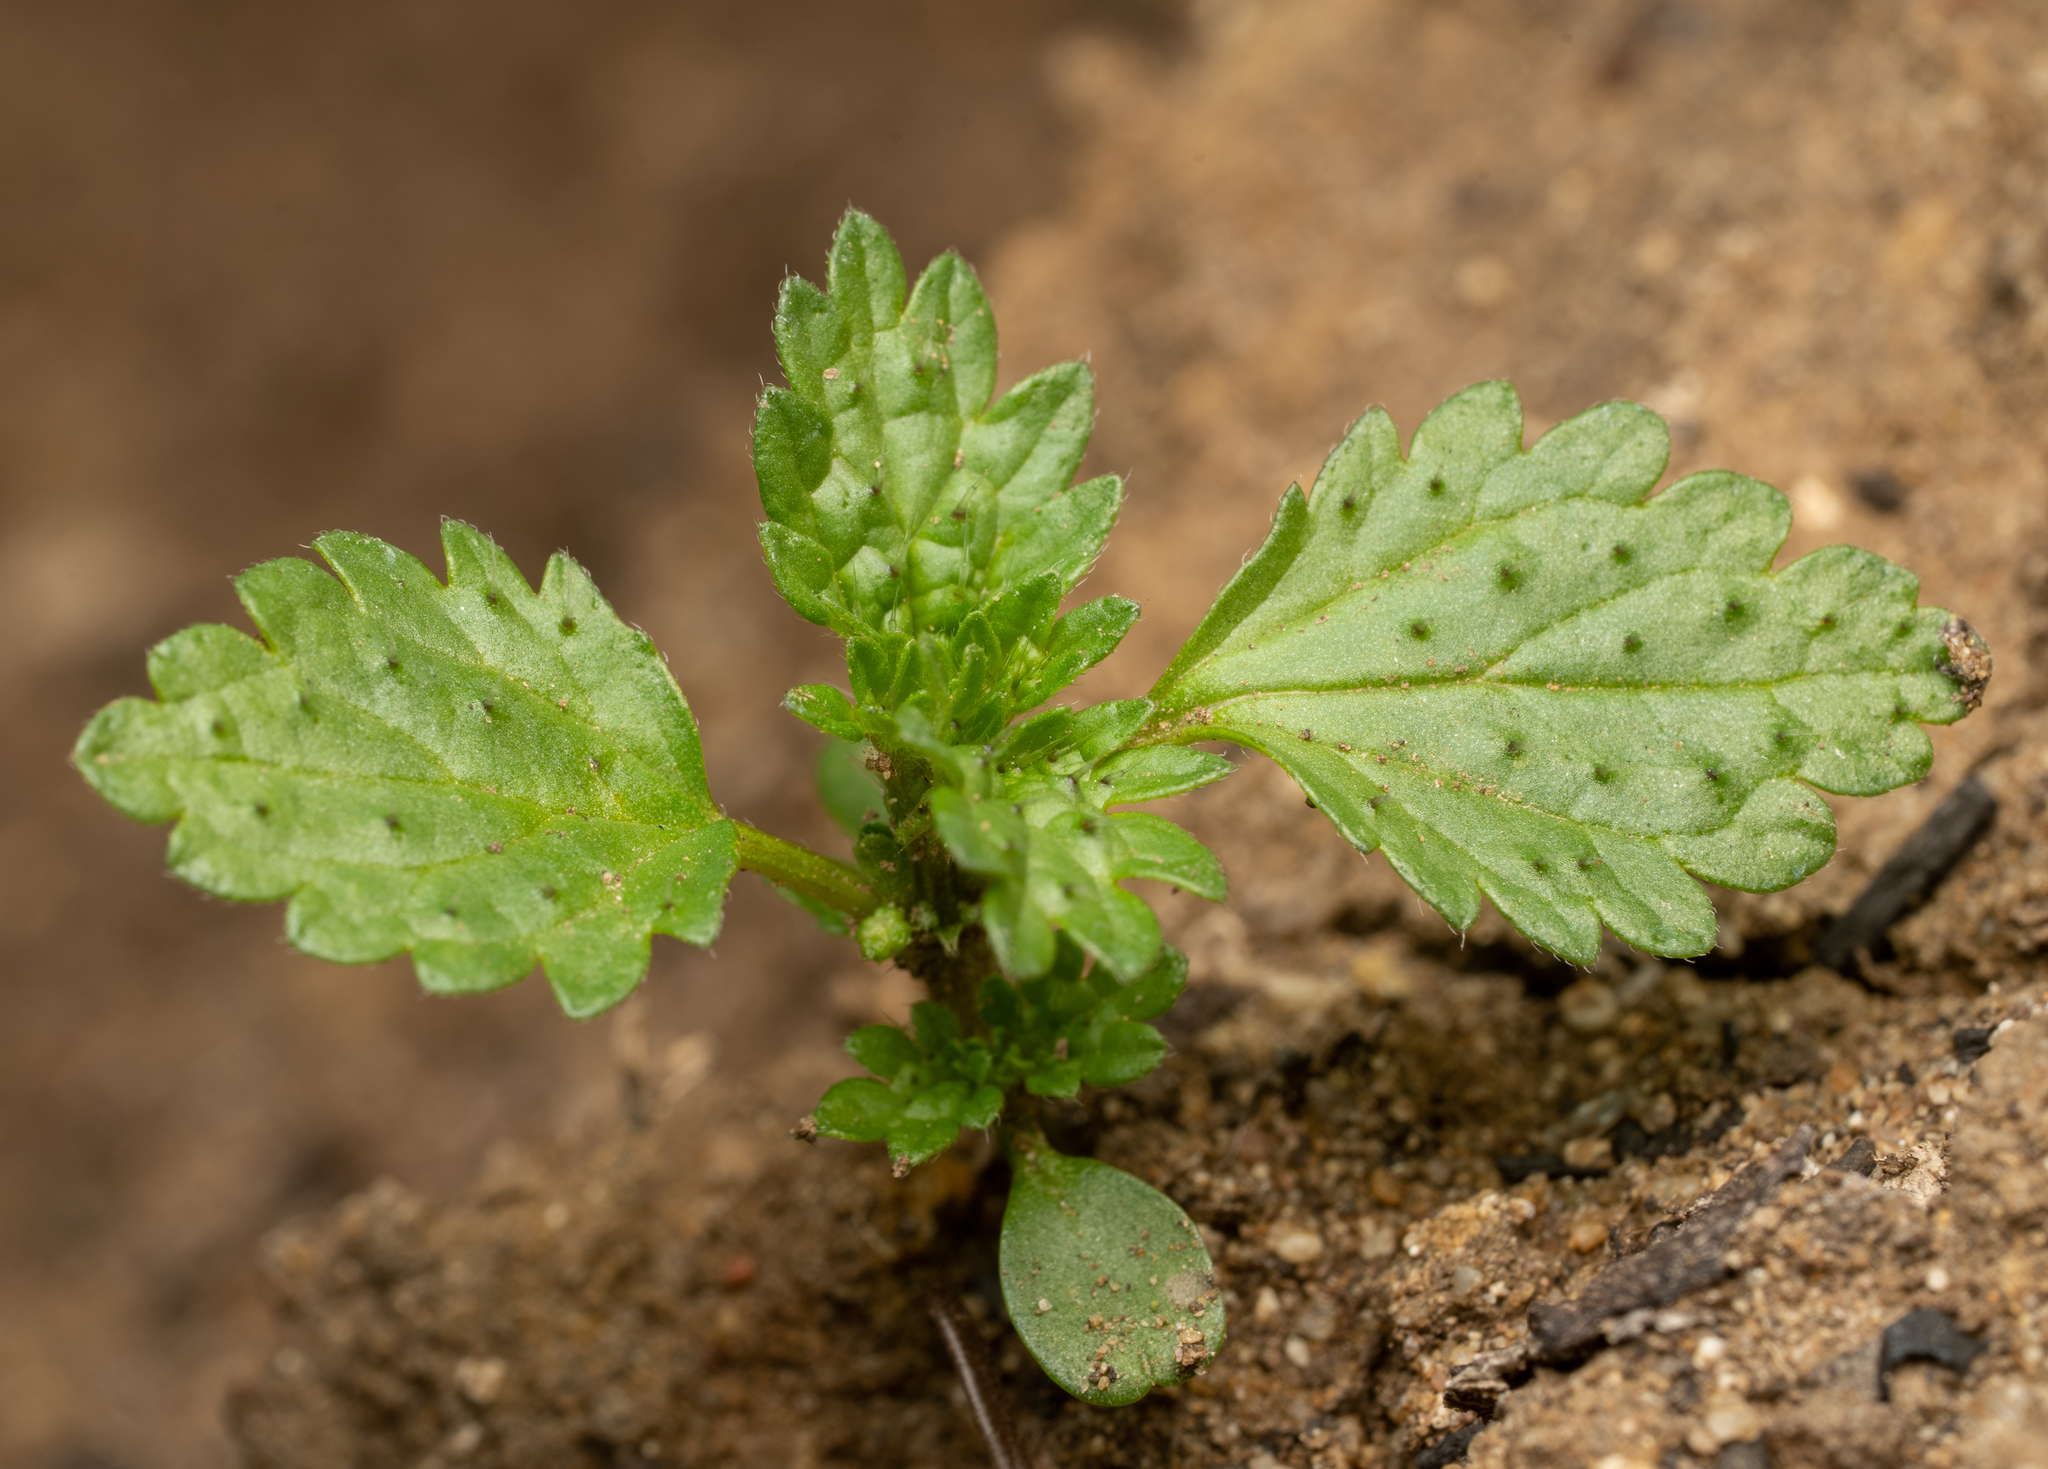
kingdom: Plantae
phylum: Tracheophyta
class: Magnoliopsida
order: Rosales
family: Urticaceae
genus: Urtica
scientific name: Urtica urens
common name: Dwarf nettle
